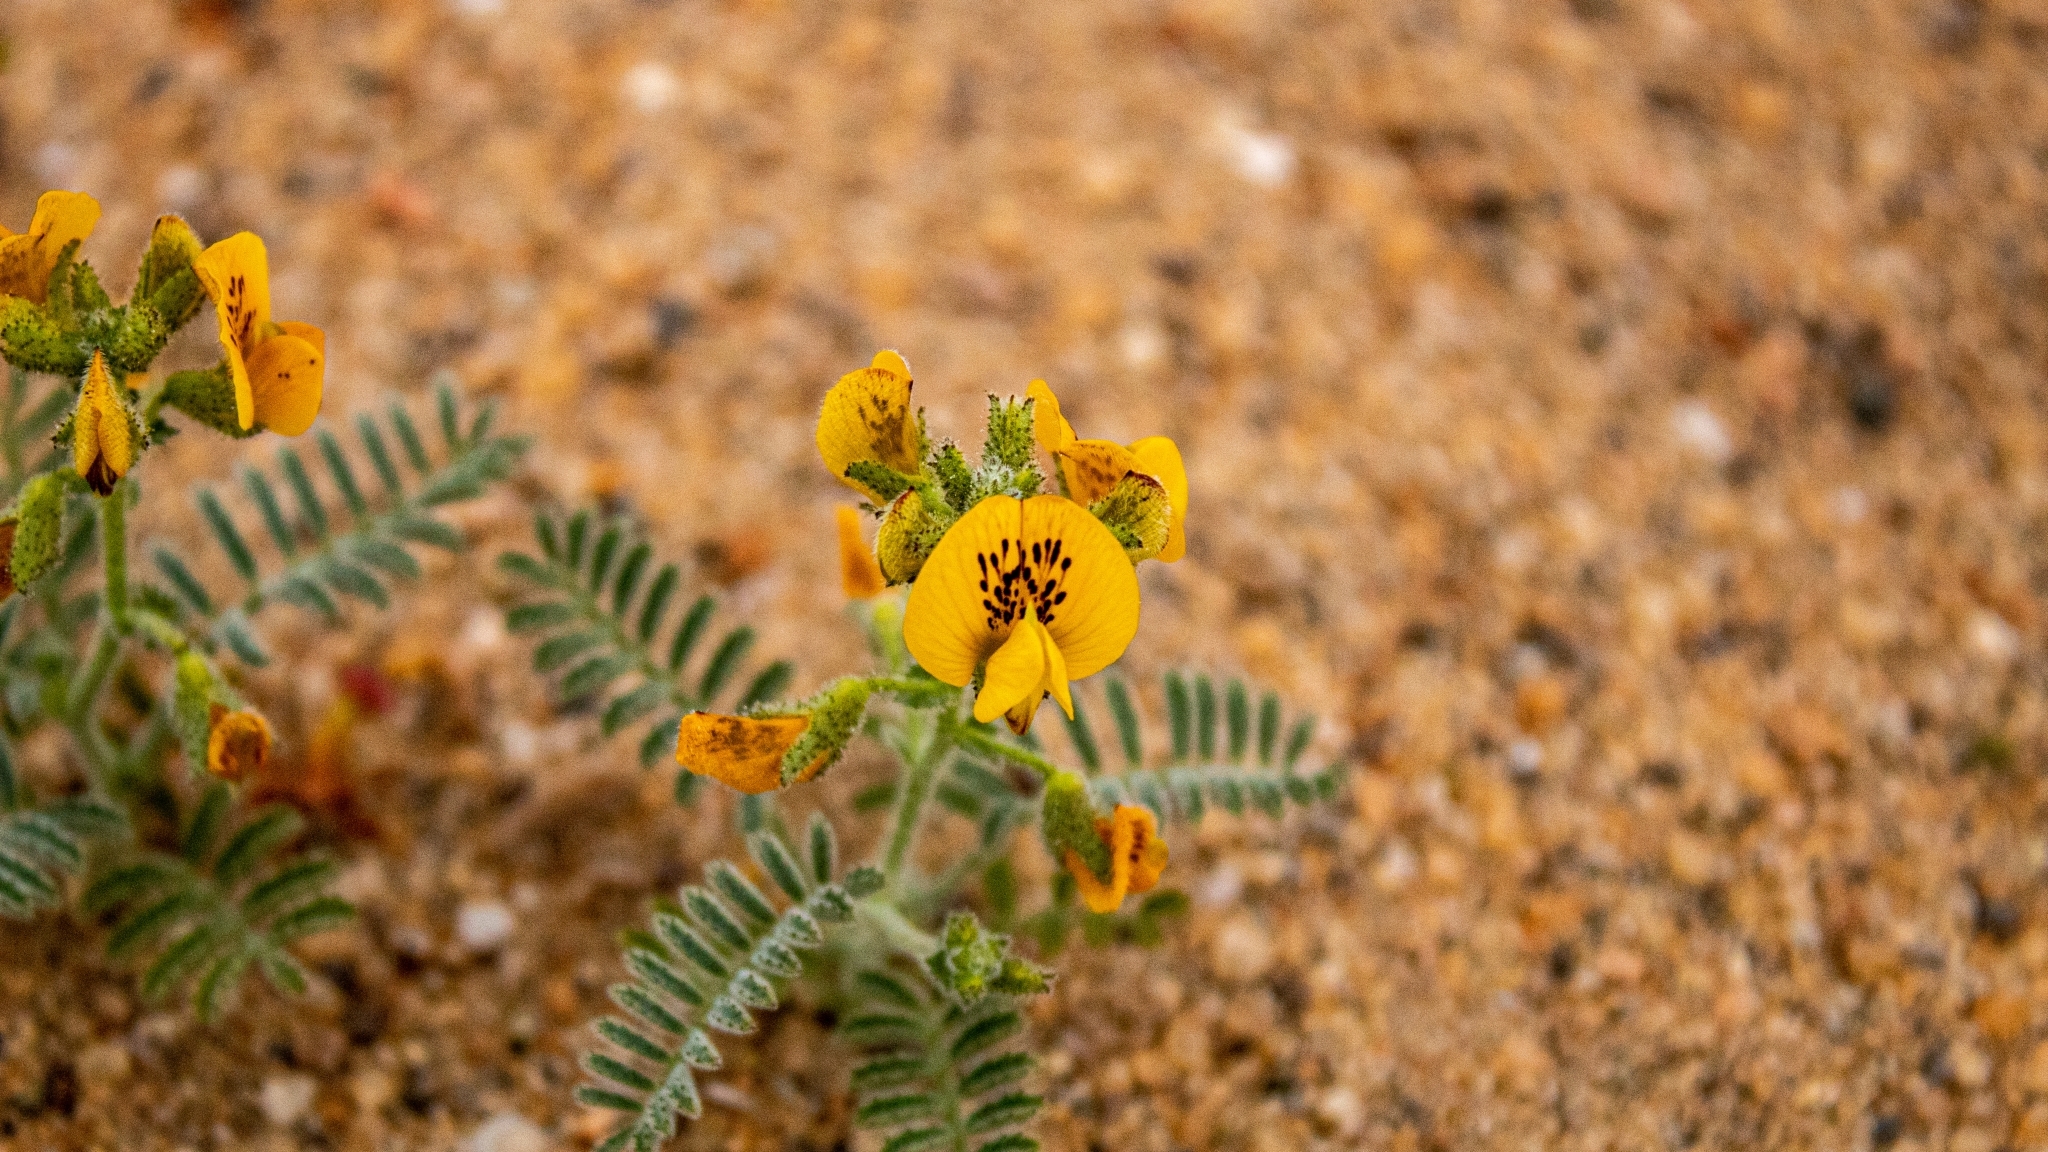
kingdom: Plantae
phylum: Tracheophyta
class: Magnoliopsida
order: Fabales
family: Fabaceae
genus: Adesmia
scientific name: Adesmia eremophila
